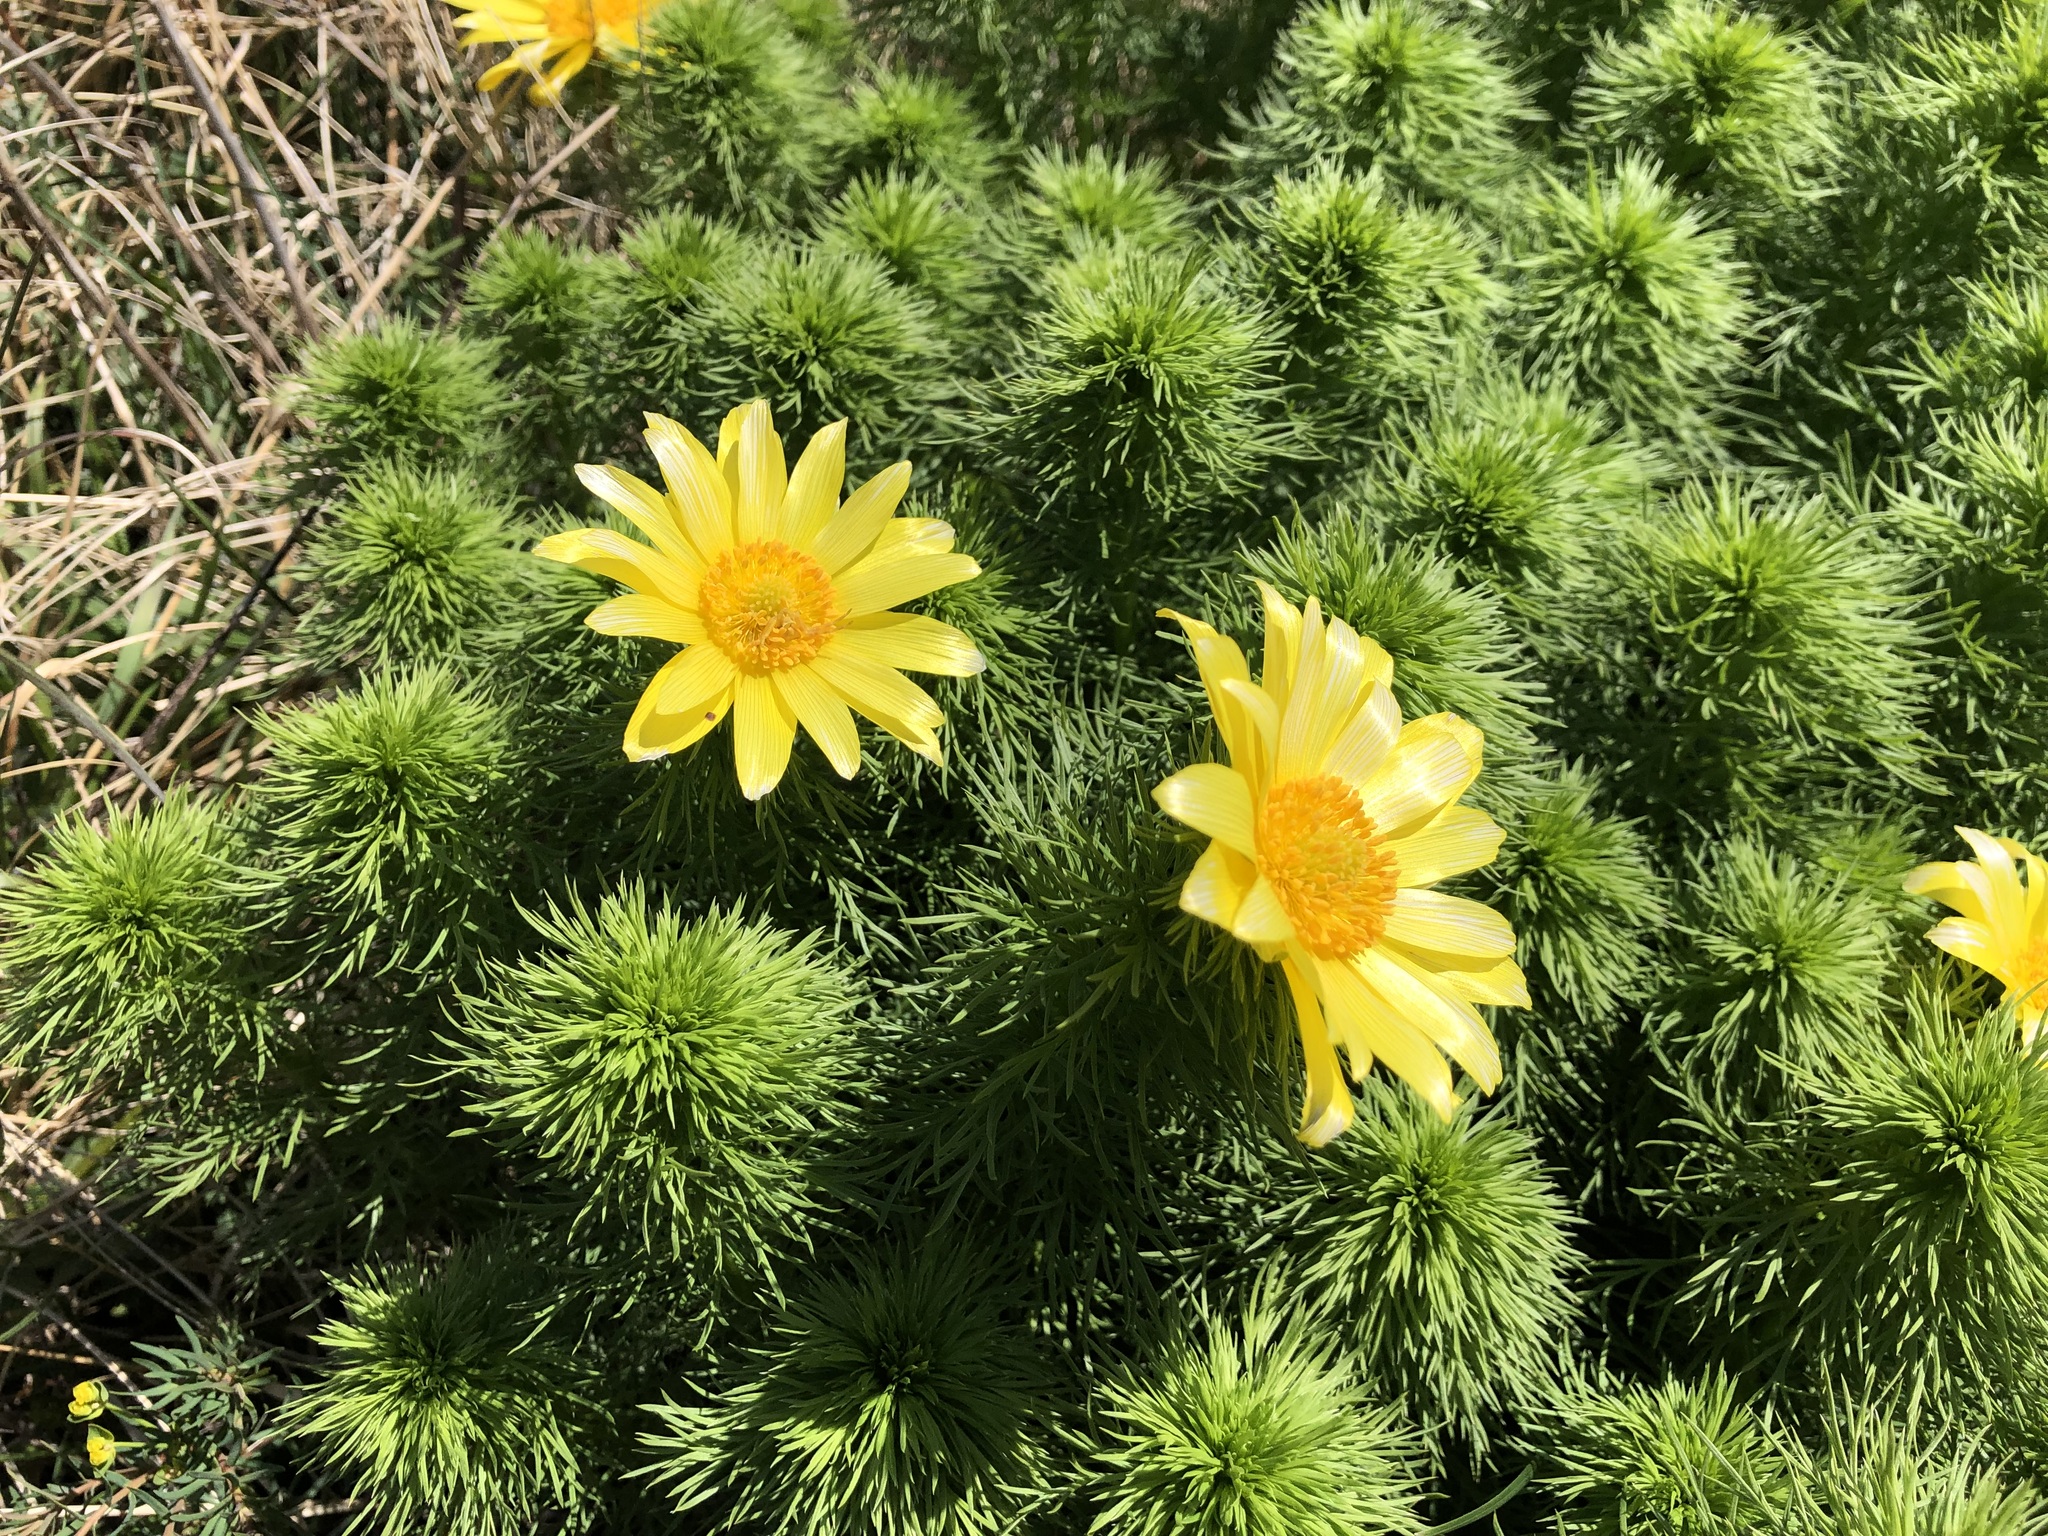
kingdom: Plantae
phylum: Tracheophyta
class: Magnoliopsida
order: Ranunculales
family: Ranunculaceae
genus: Adonis
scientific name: Adonis vernalis
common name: Yellow pheasants-eye
